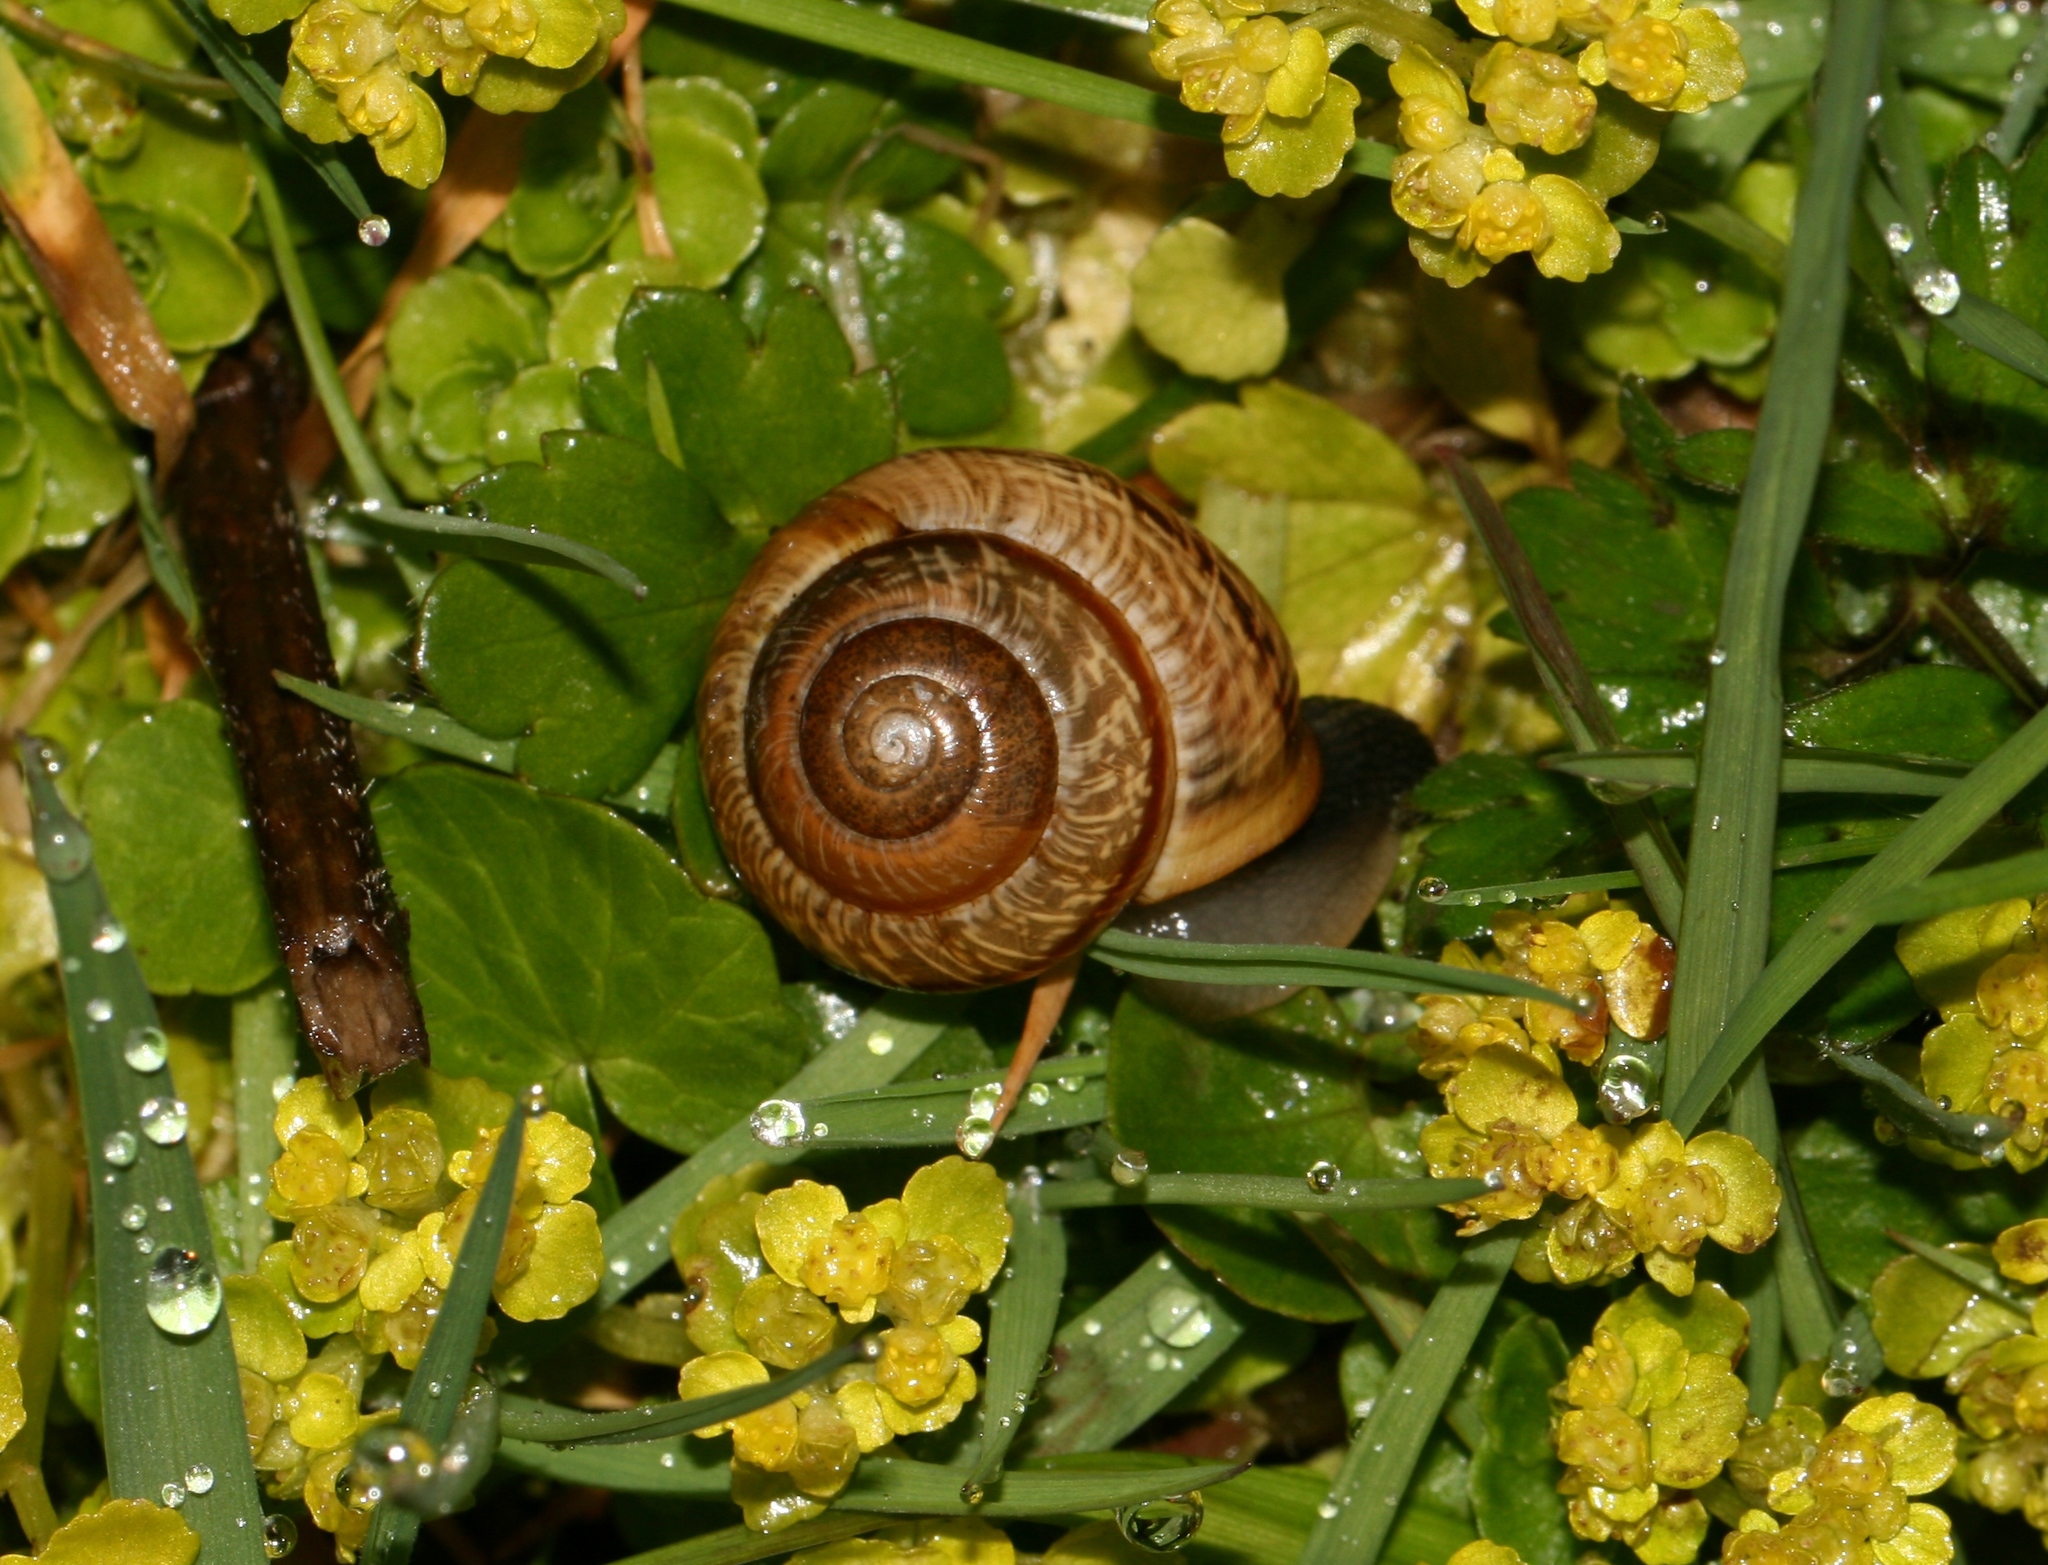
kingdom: Animalia
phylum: Mollusca
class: Gastropoda
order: Stylommatophora
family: Helicidae
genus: Arianta
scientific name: Arianta arbustorum
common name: Copse snail
